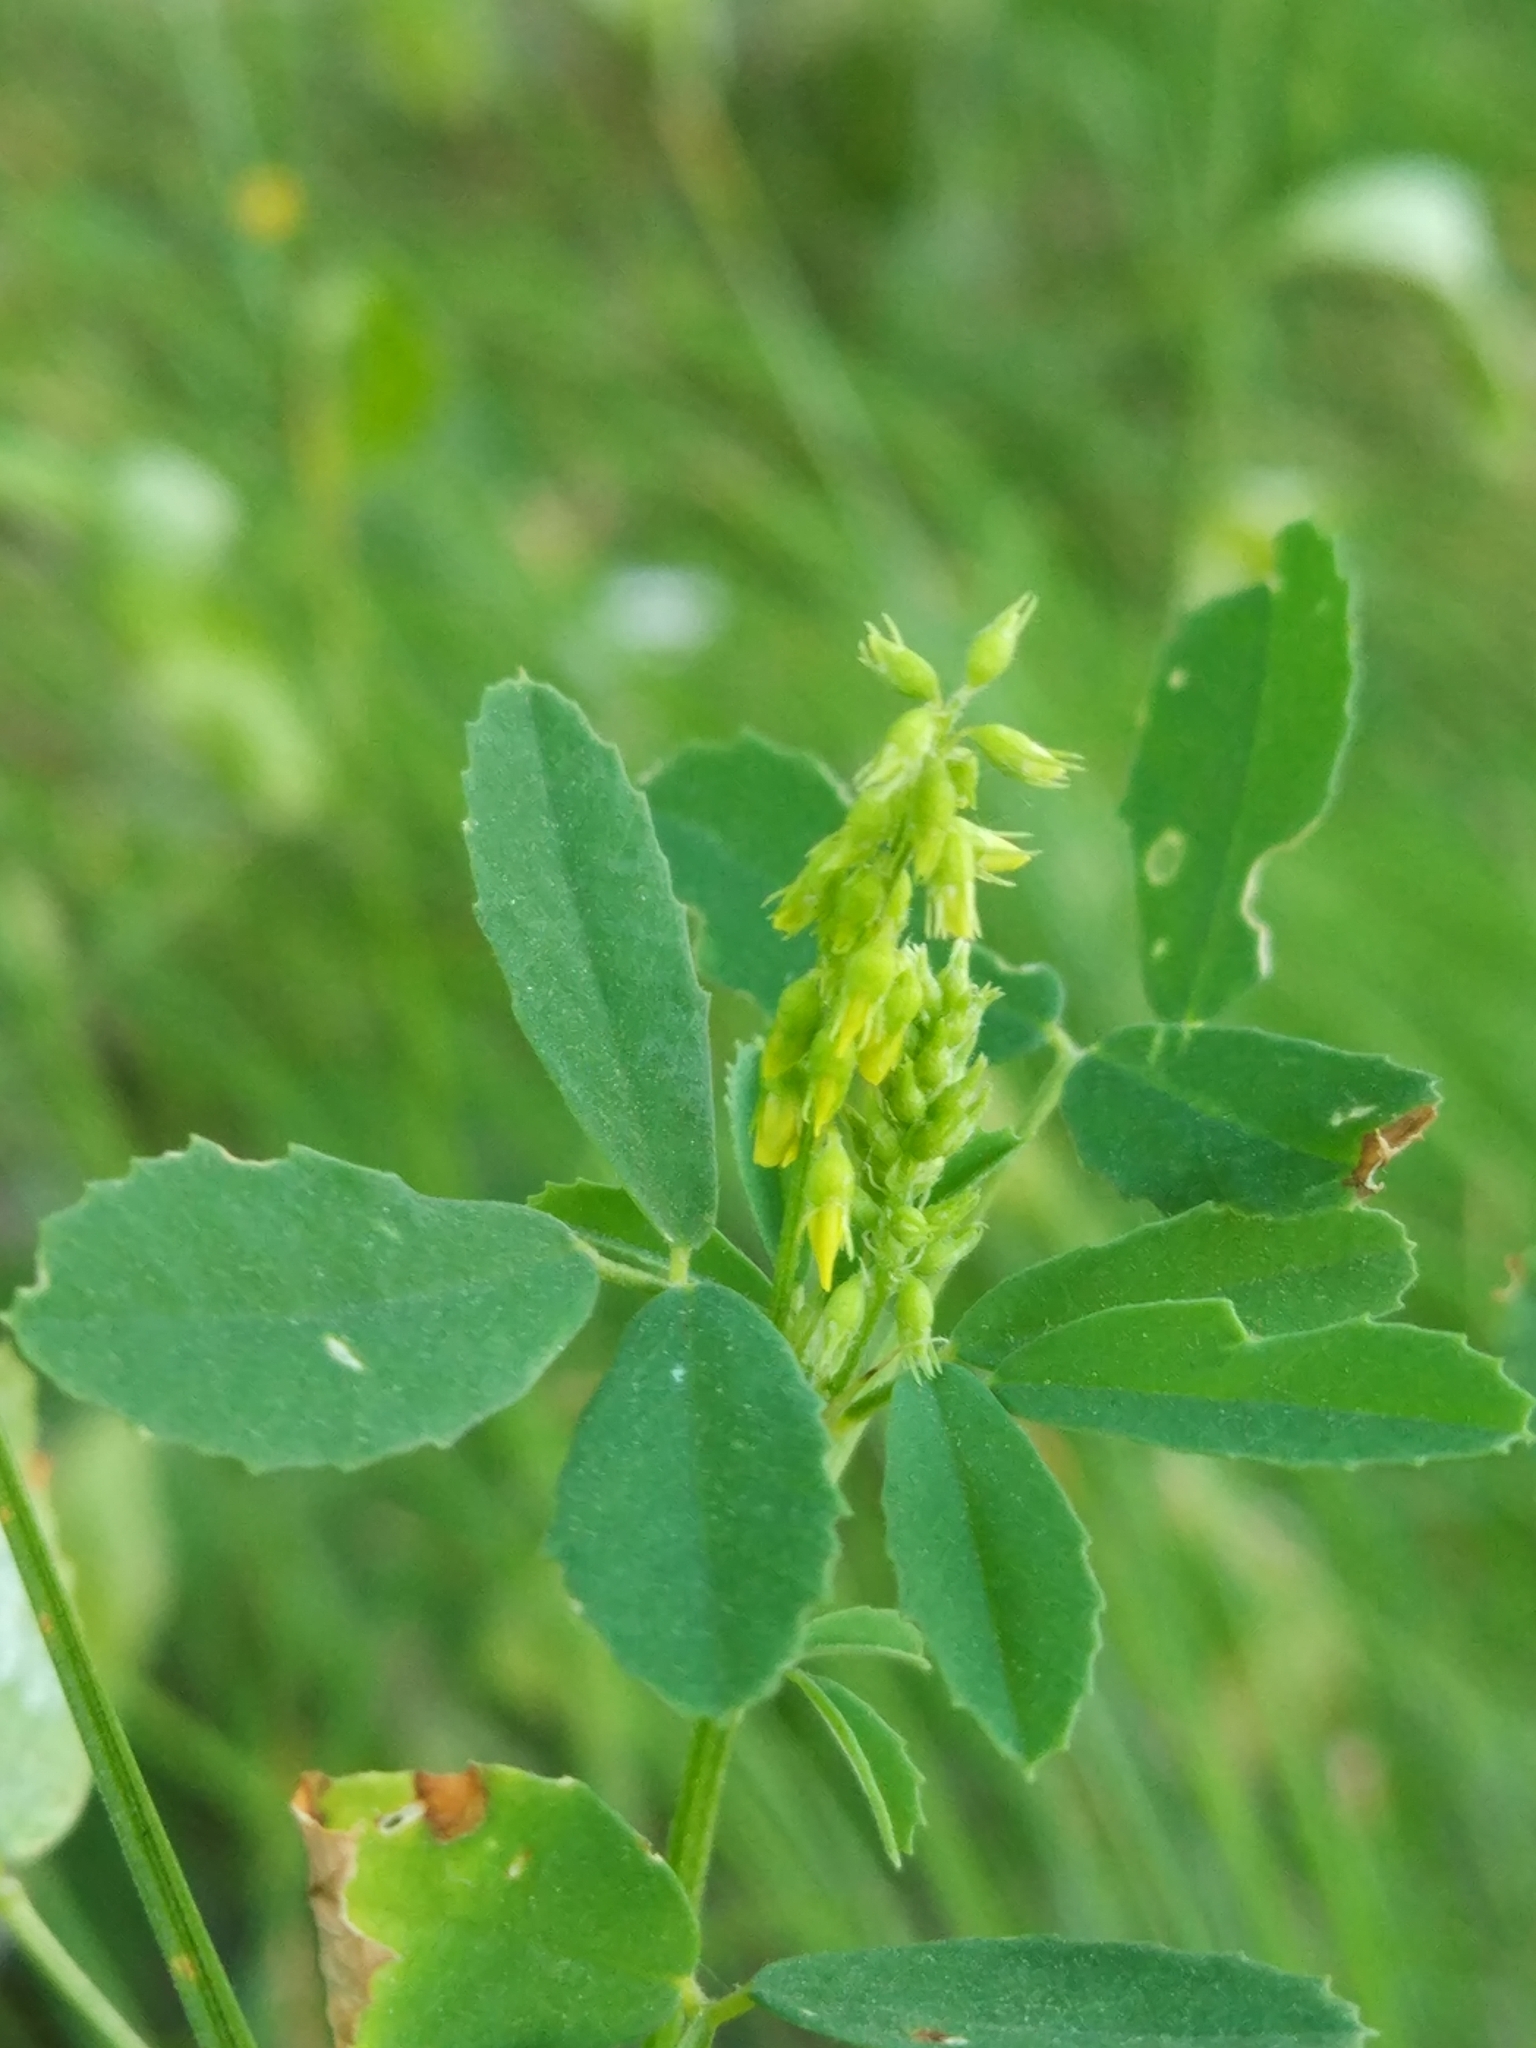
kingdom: Plantae
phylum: Tracheophyta
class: Magnoliopsida
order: Fabales
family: Fabaceae
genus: Melilotus
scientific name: Melilotus officinalis
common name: Sweetclover
